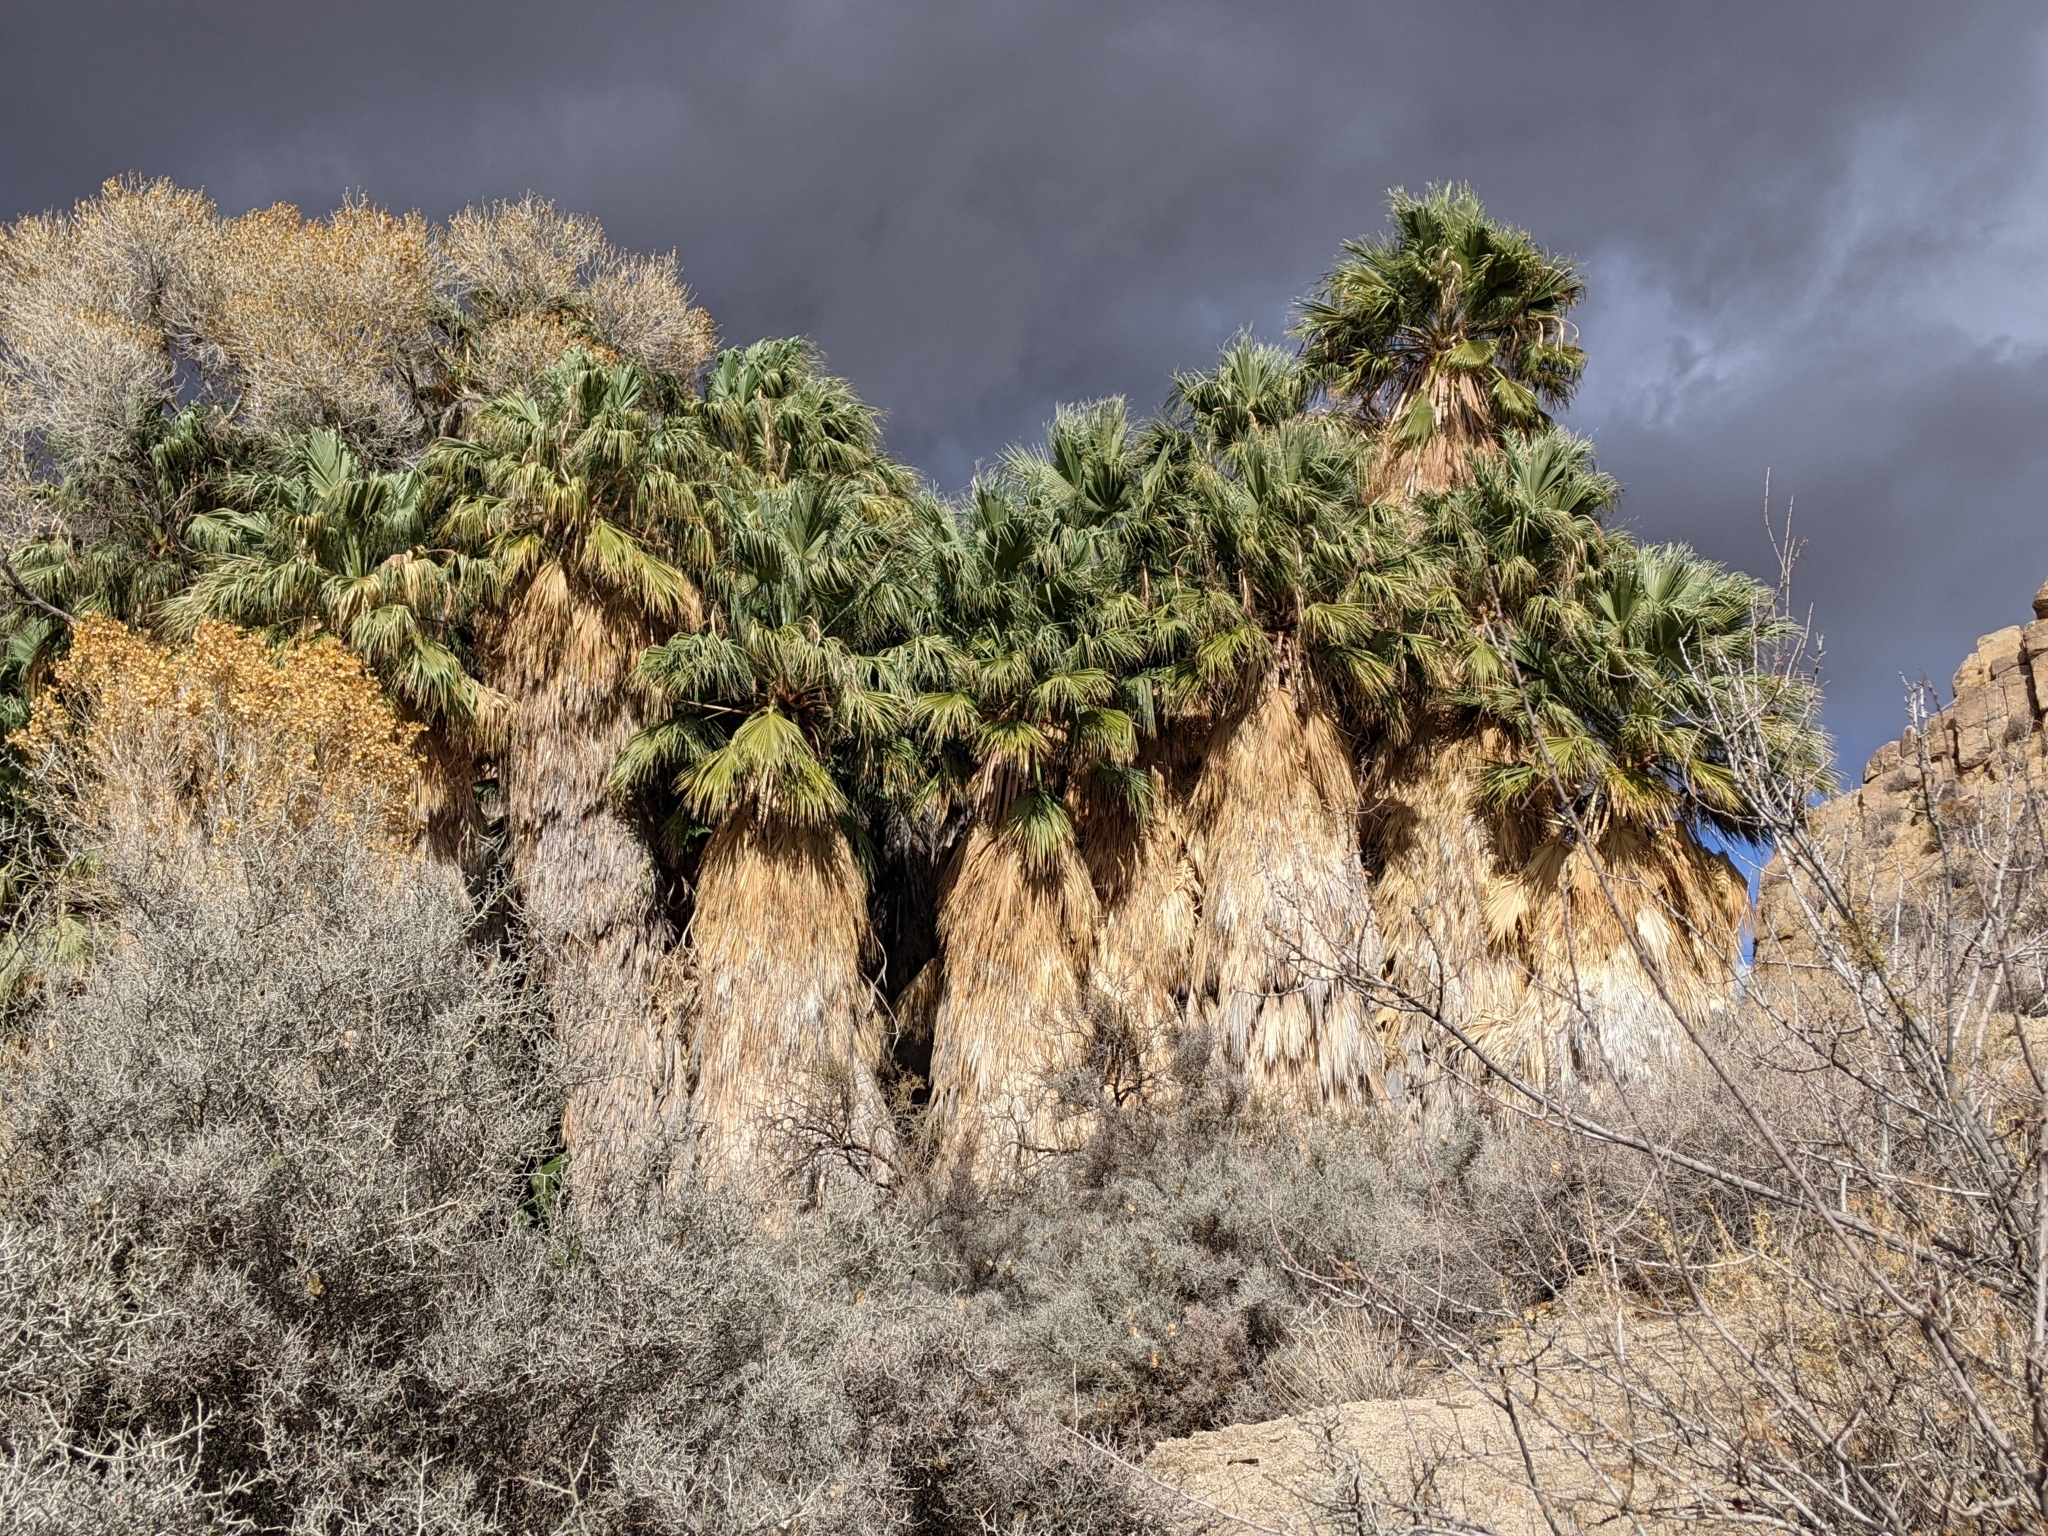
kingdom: Plantae
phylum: Tracheophyta
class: Liliopsida
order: Arecales
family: Arecaceae
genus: Washingtonia
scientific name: Washingtonia filifera
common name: California fan palm
